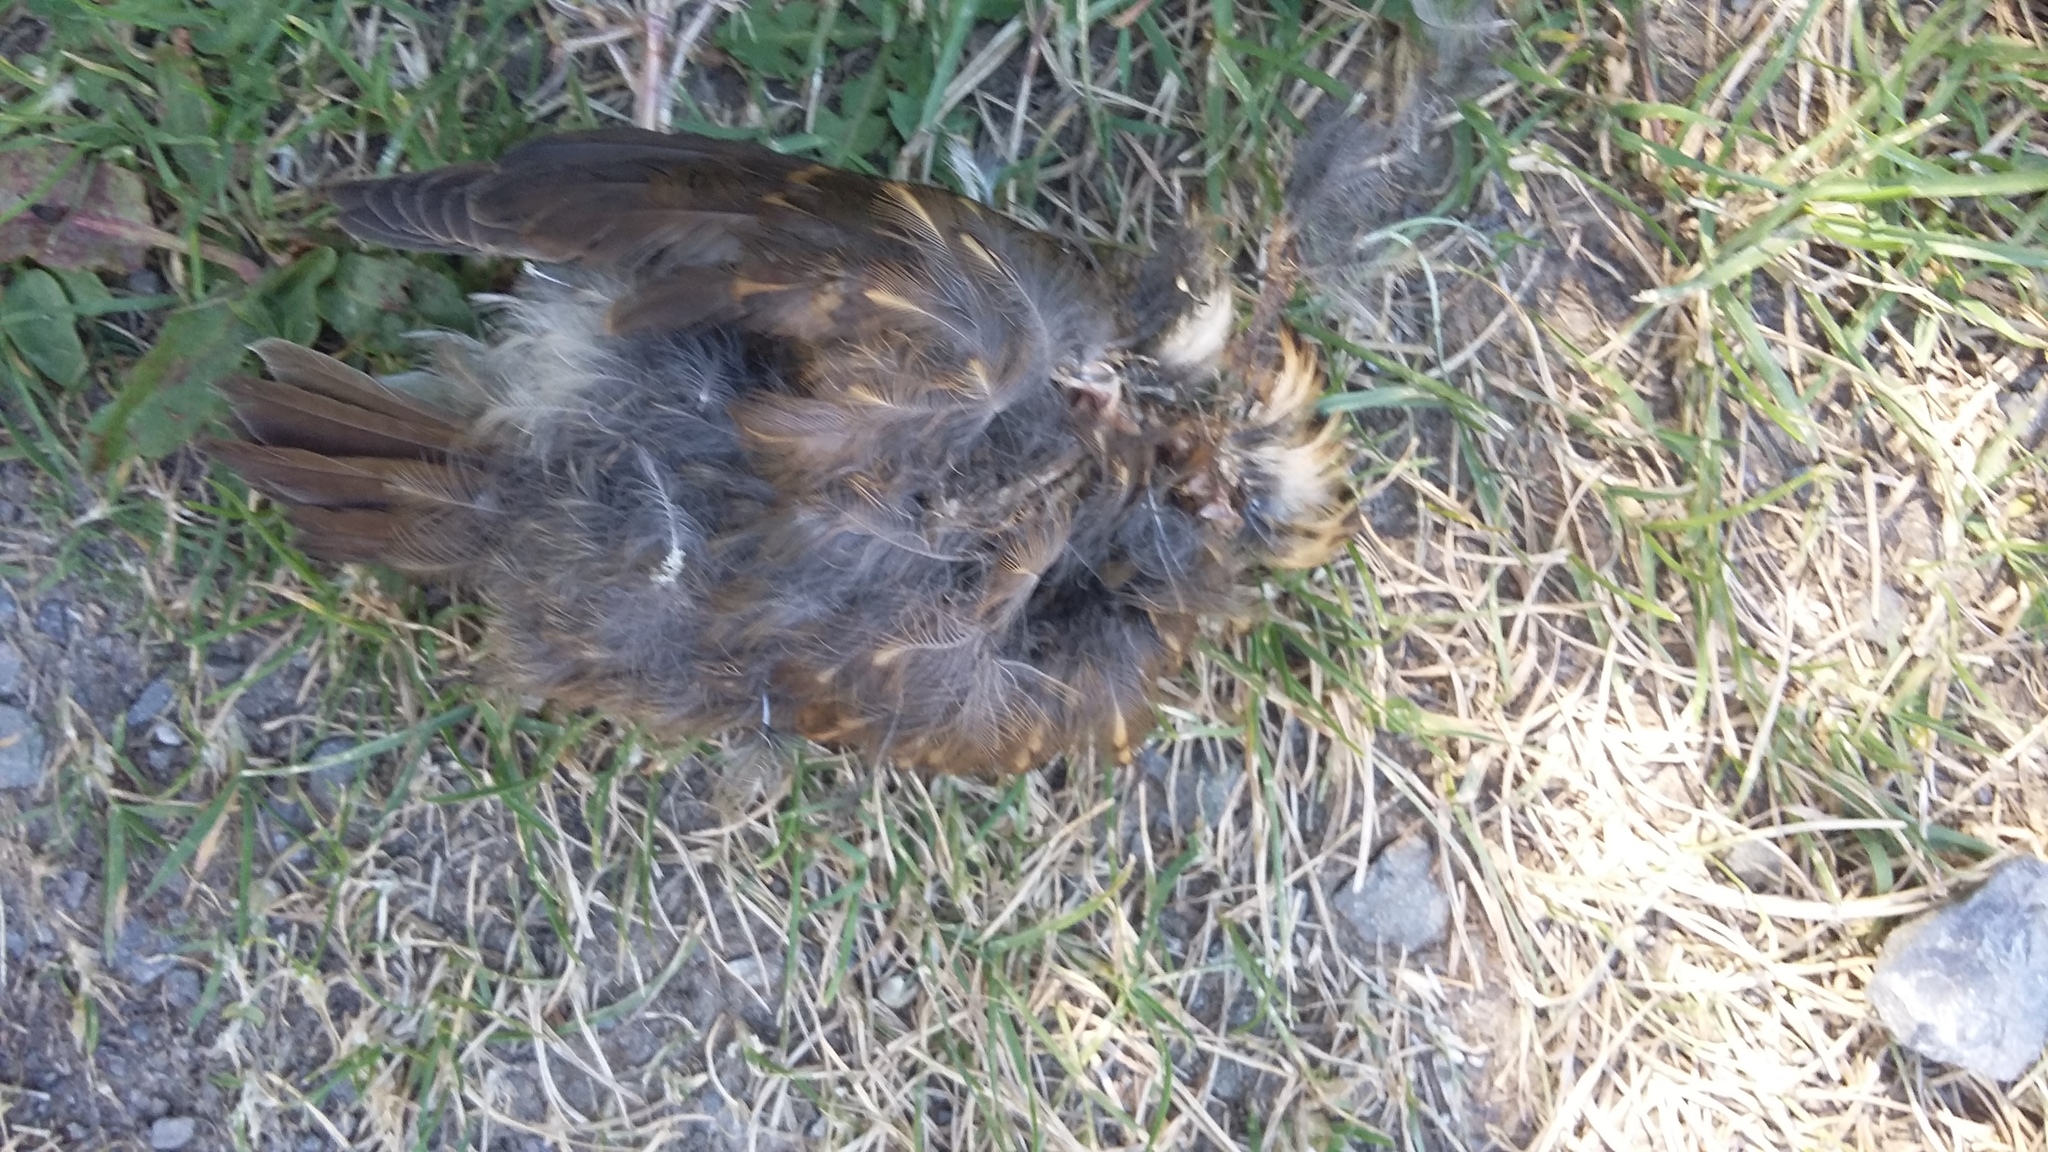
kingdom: Animalia
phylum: Chordata
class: Aves
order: Passeriformes
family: Turdidae
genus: Turdus
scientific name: Turdus philomelos
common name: Song thrush
